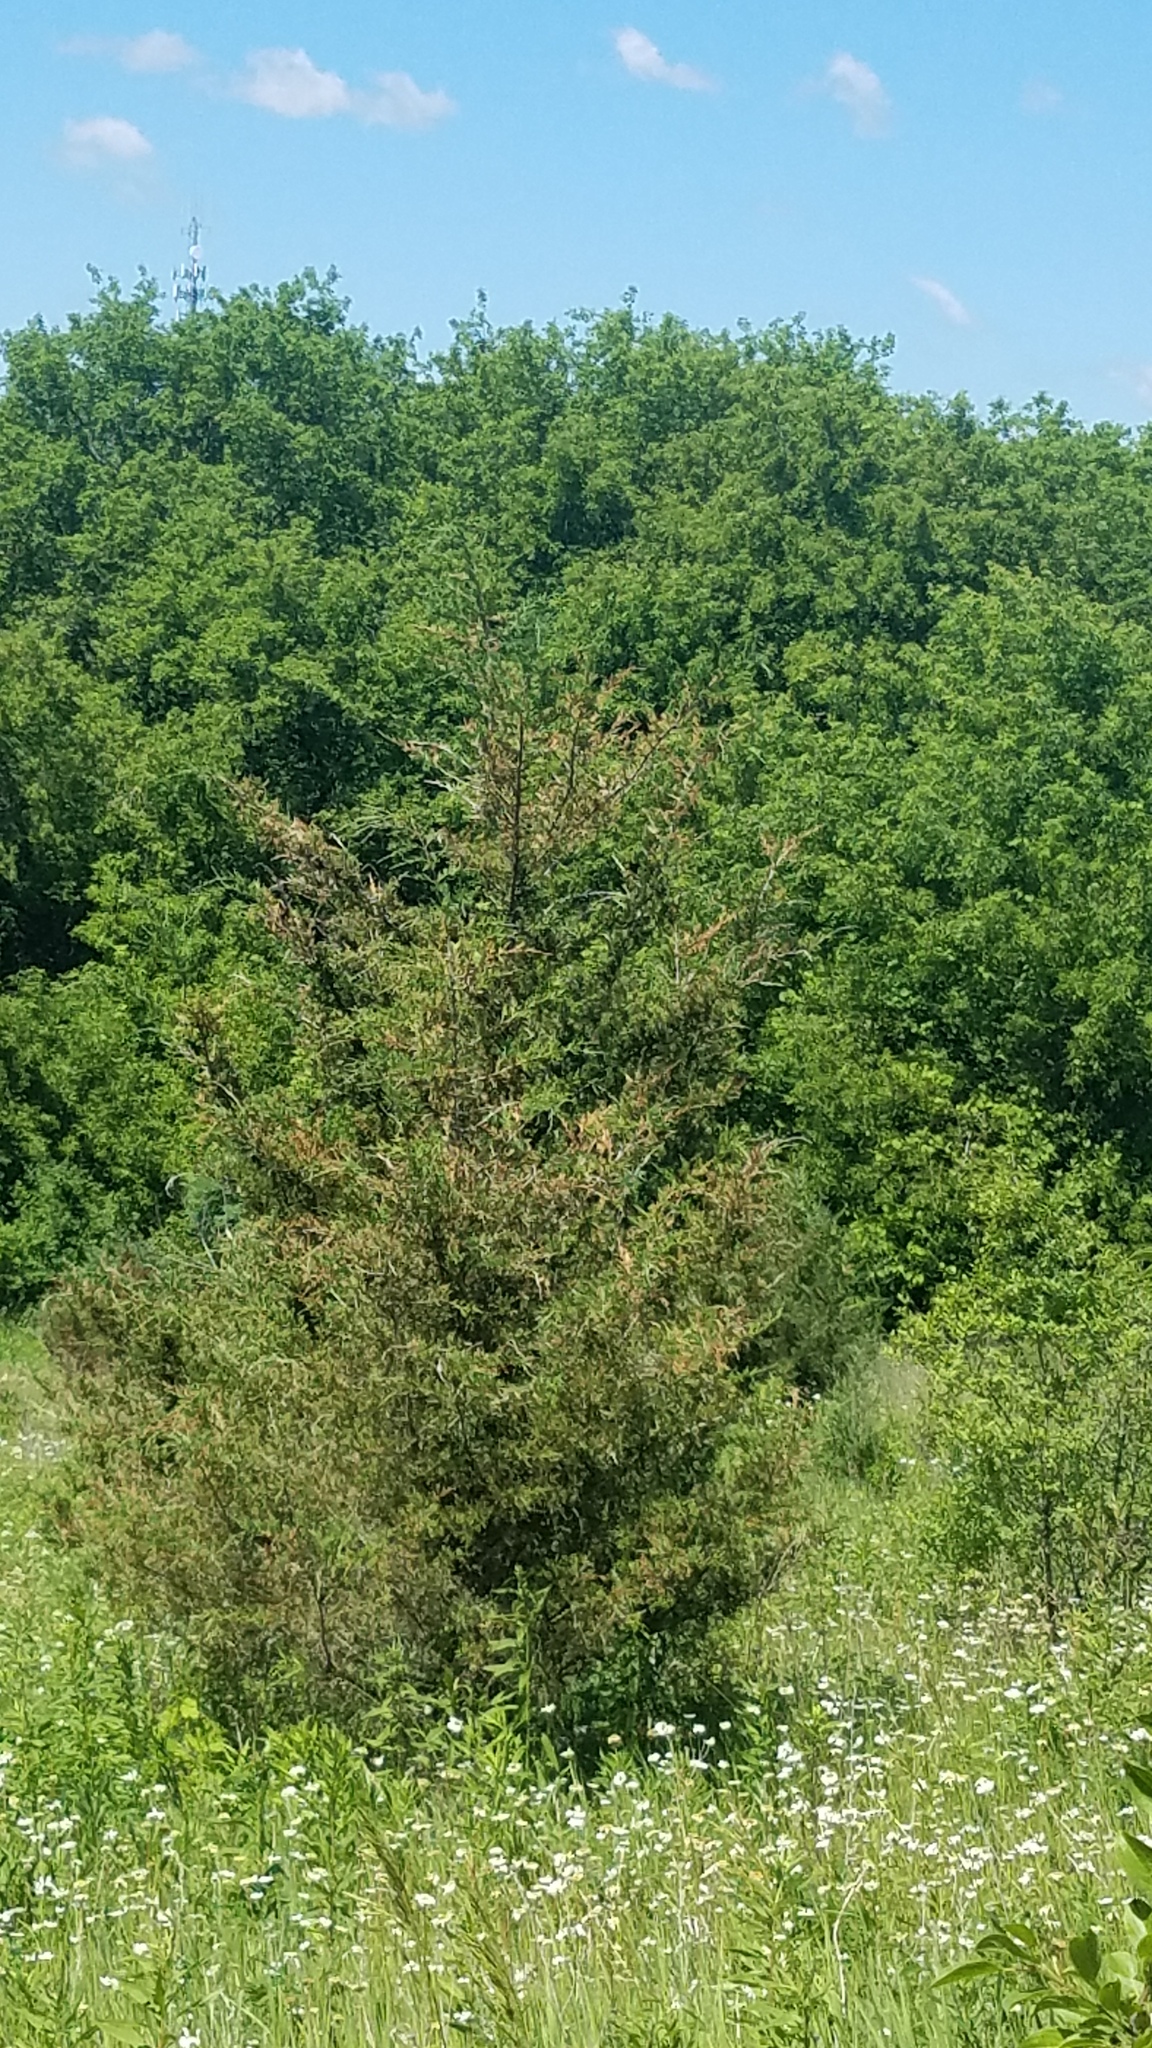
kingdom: Plantae
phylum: Tracheophyta
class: Pinopsida
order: Pinales
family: Cupressaceae
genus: Juniperus
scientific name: Juniperus virginiana
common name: Red juniper
